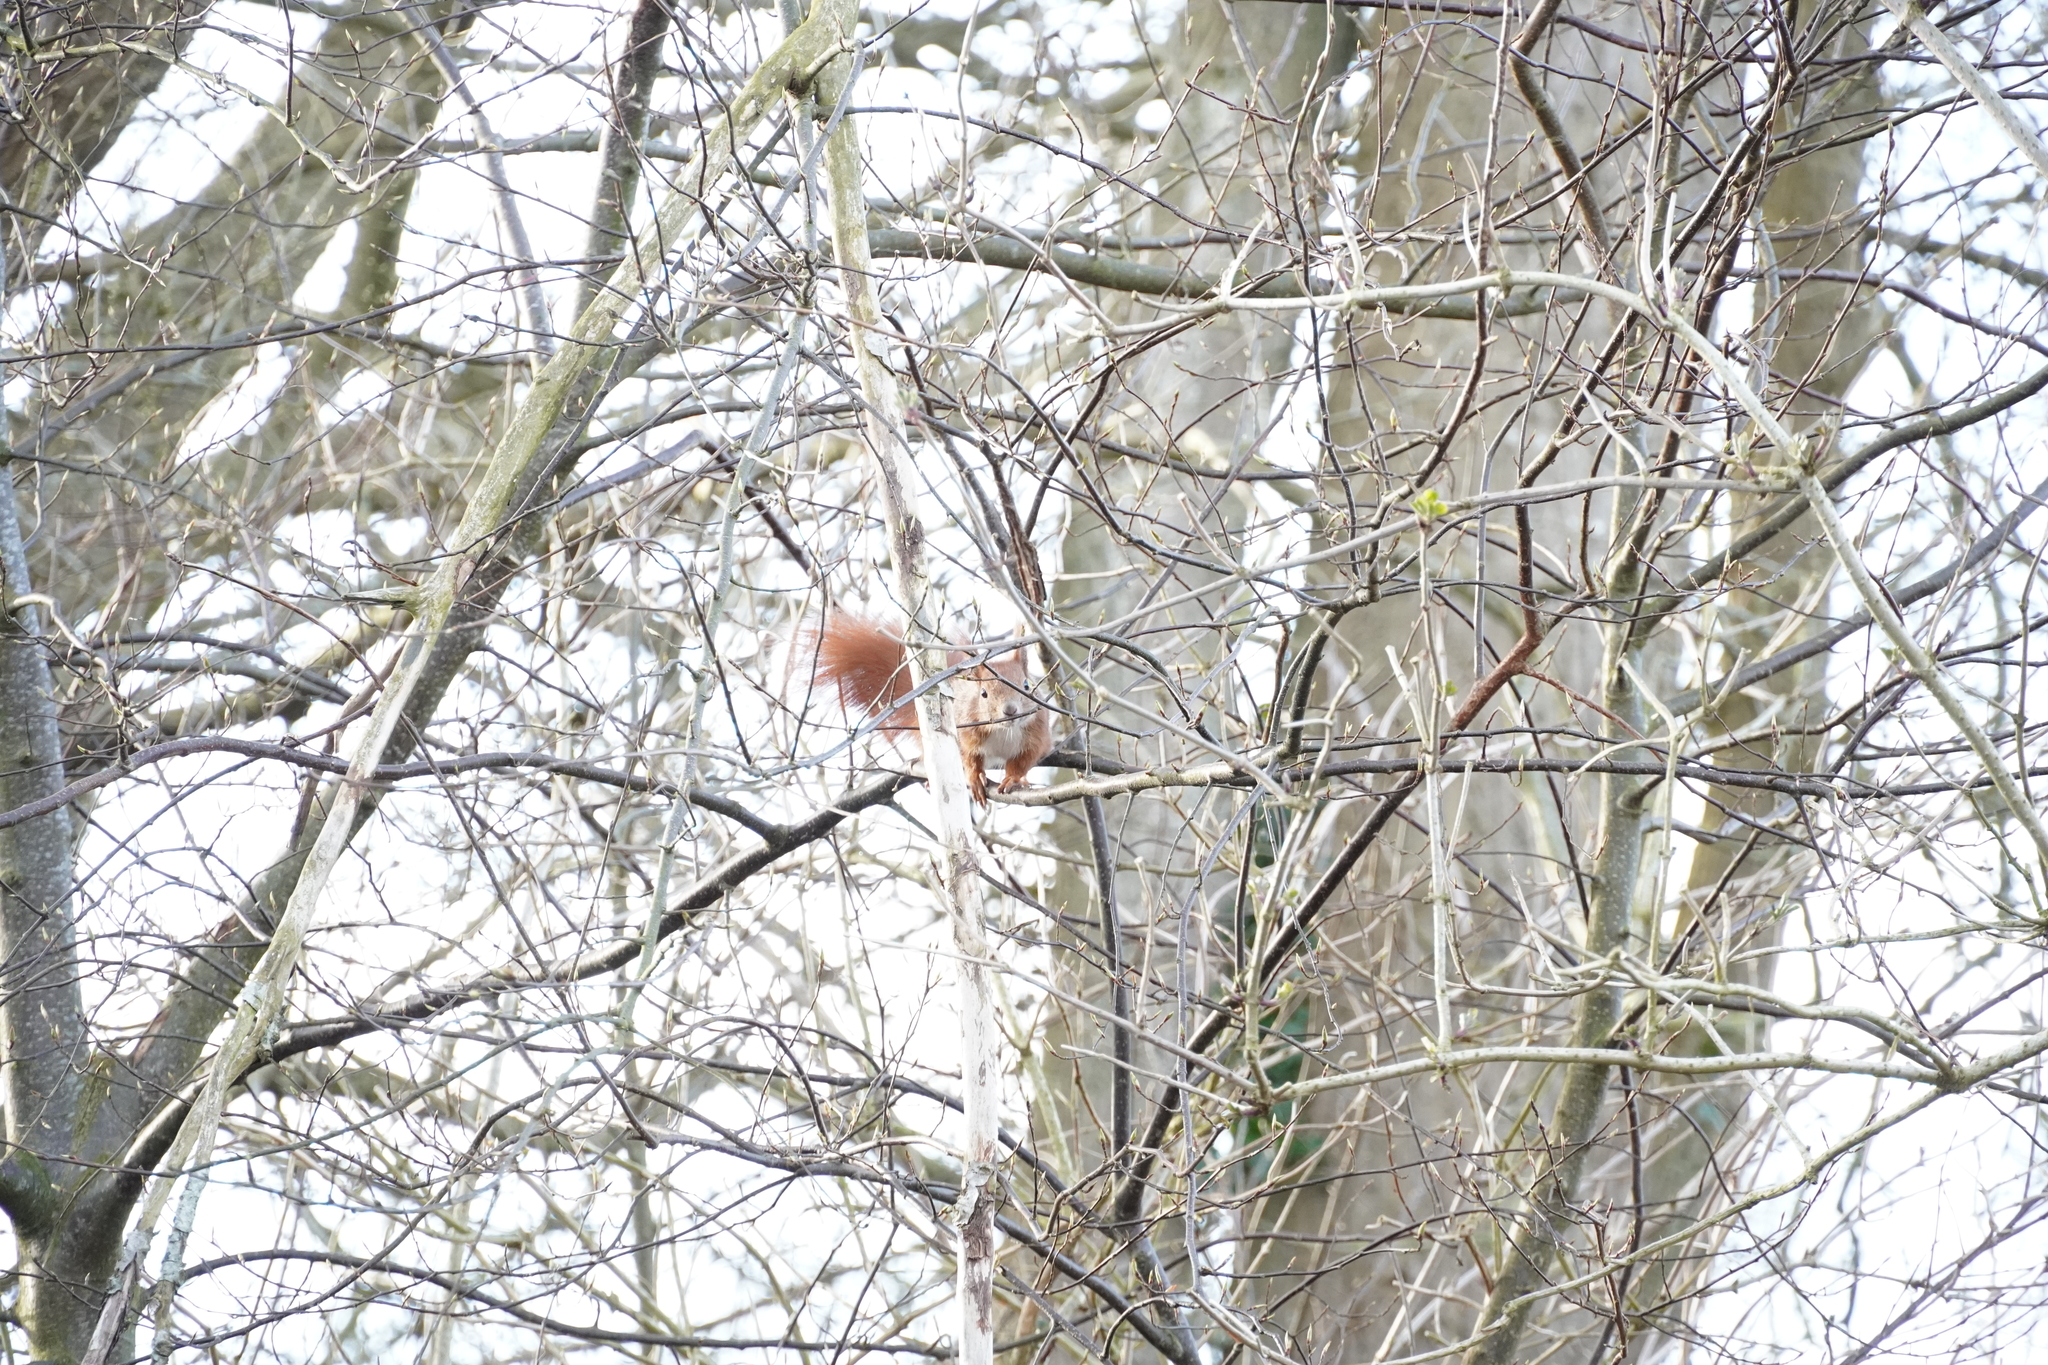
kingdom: Animalia
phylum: Chordata
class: Mammalia
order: Rodentia
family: Sciuridae
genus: Sciurus
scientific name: Sciurus vulgaris
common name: Eurasian red squirrel
